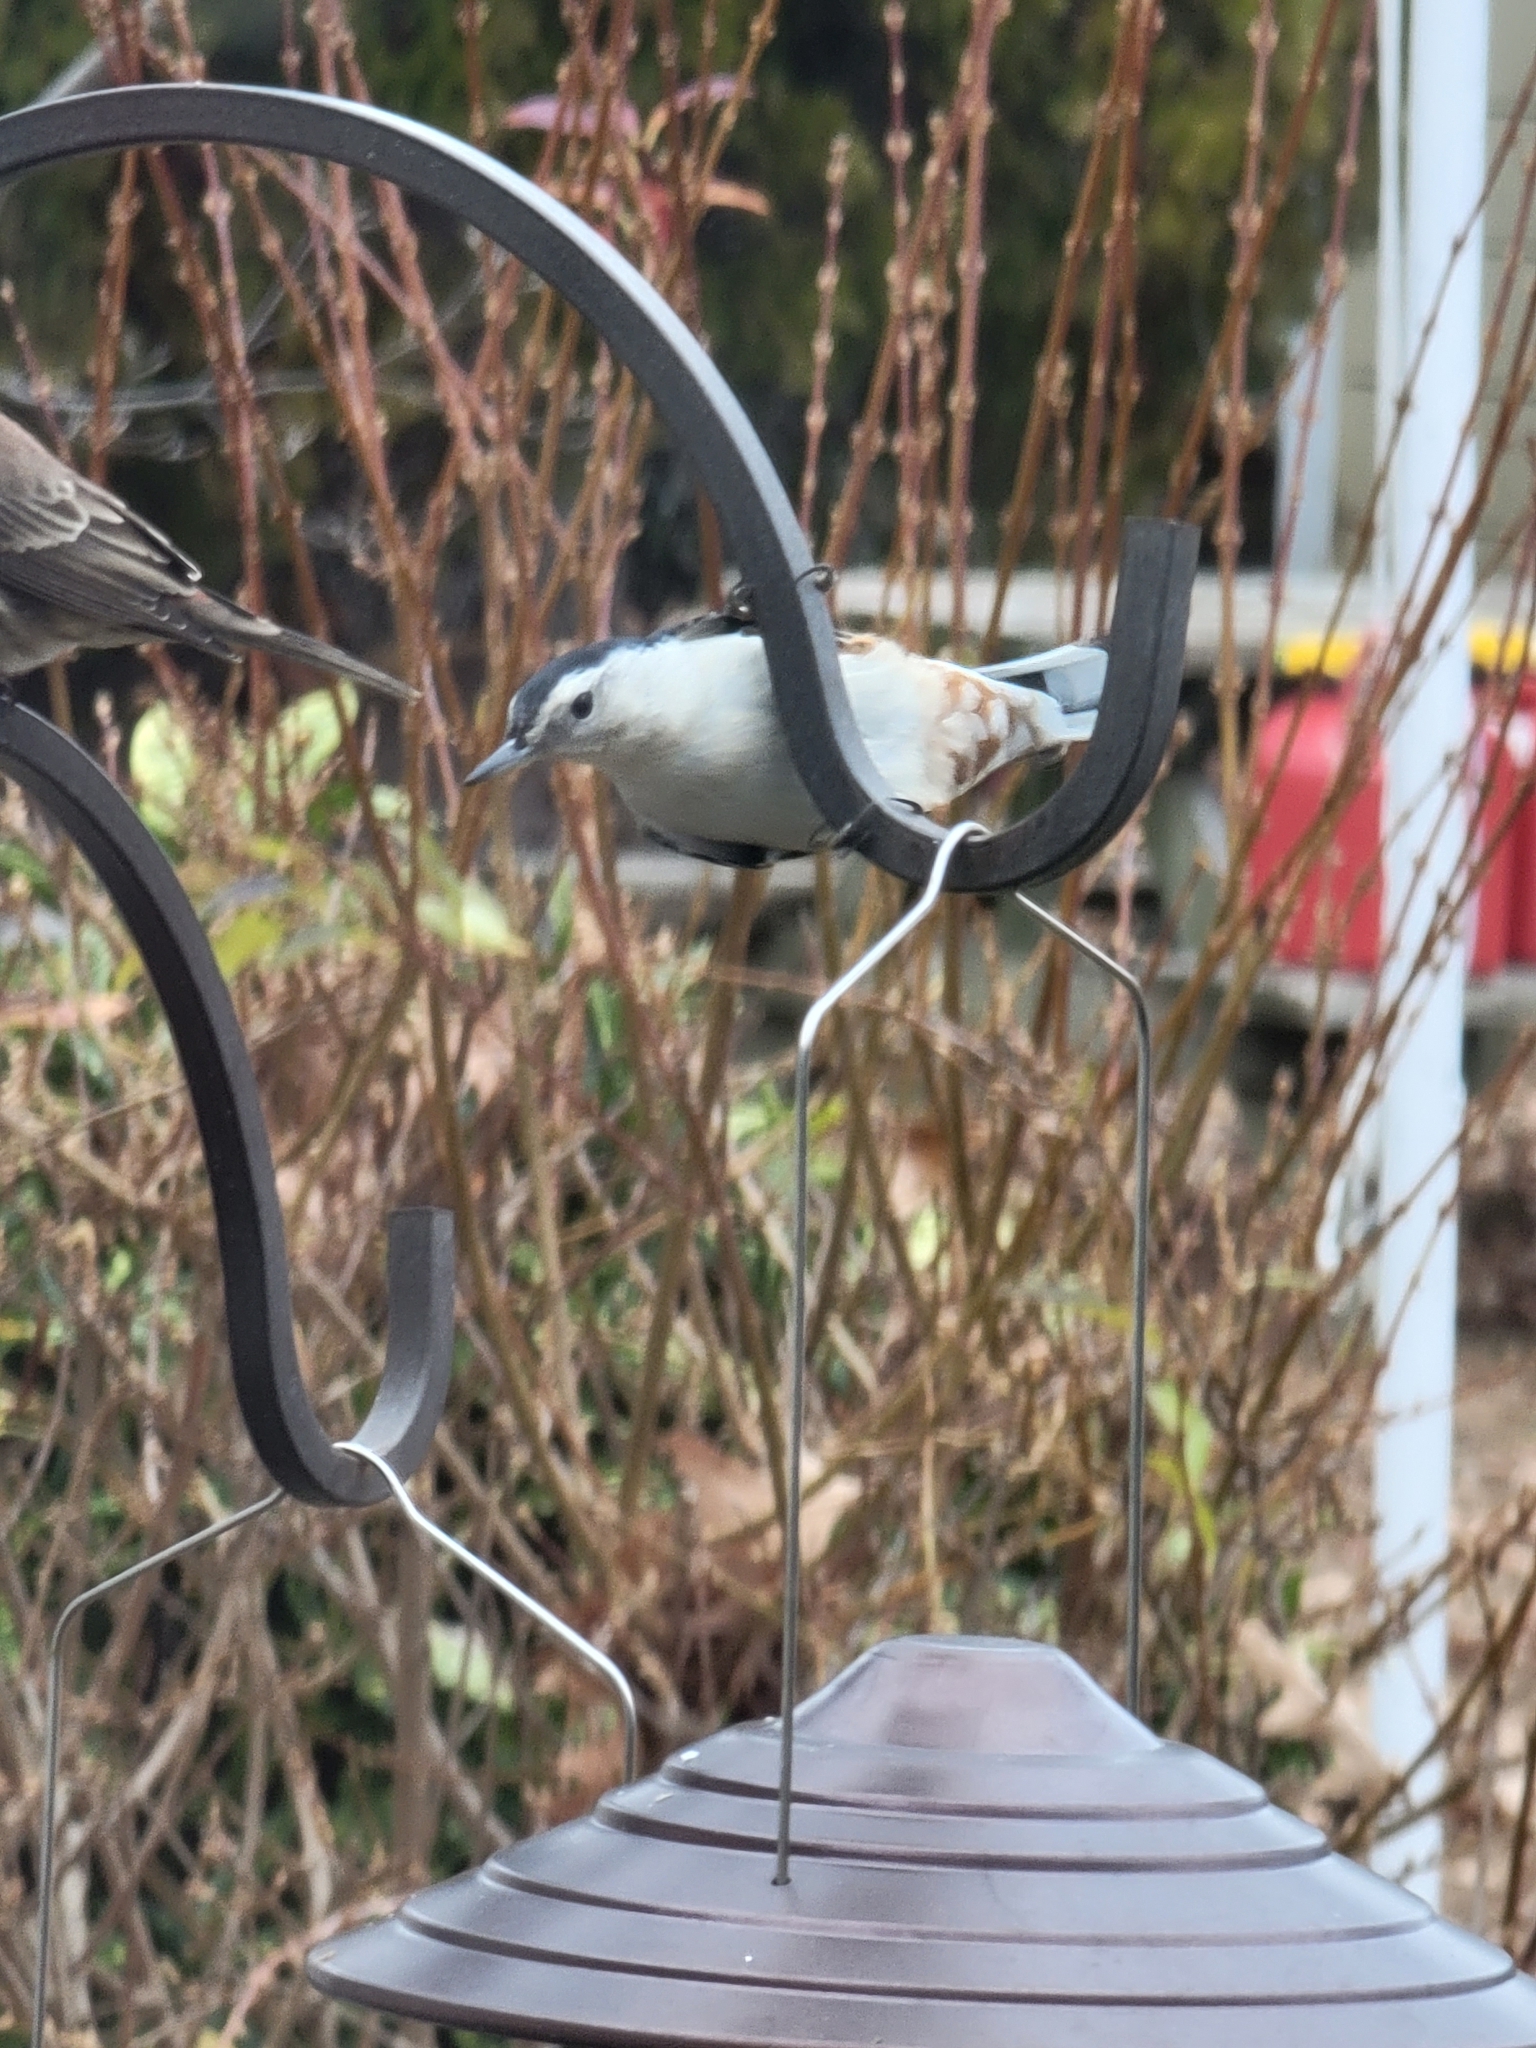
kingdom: Animalia
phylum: Chordata
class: Aves
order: Passeriformes
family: Sittidae
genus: Sitta
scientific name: Sitta carolinensis
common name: White-breasted nuthatch
